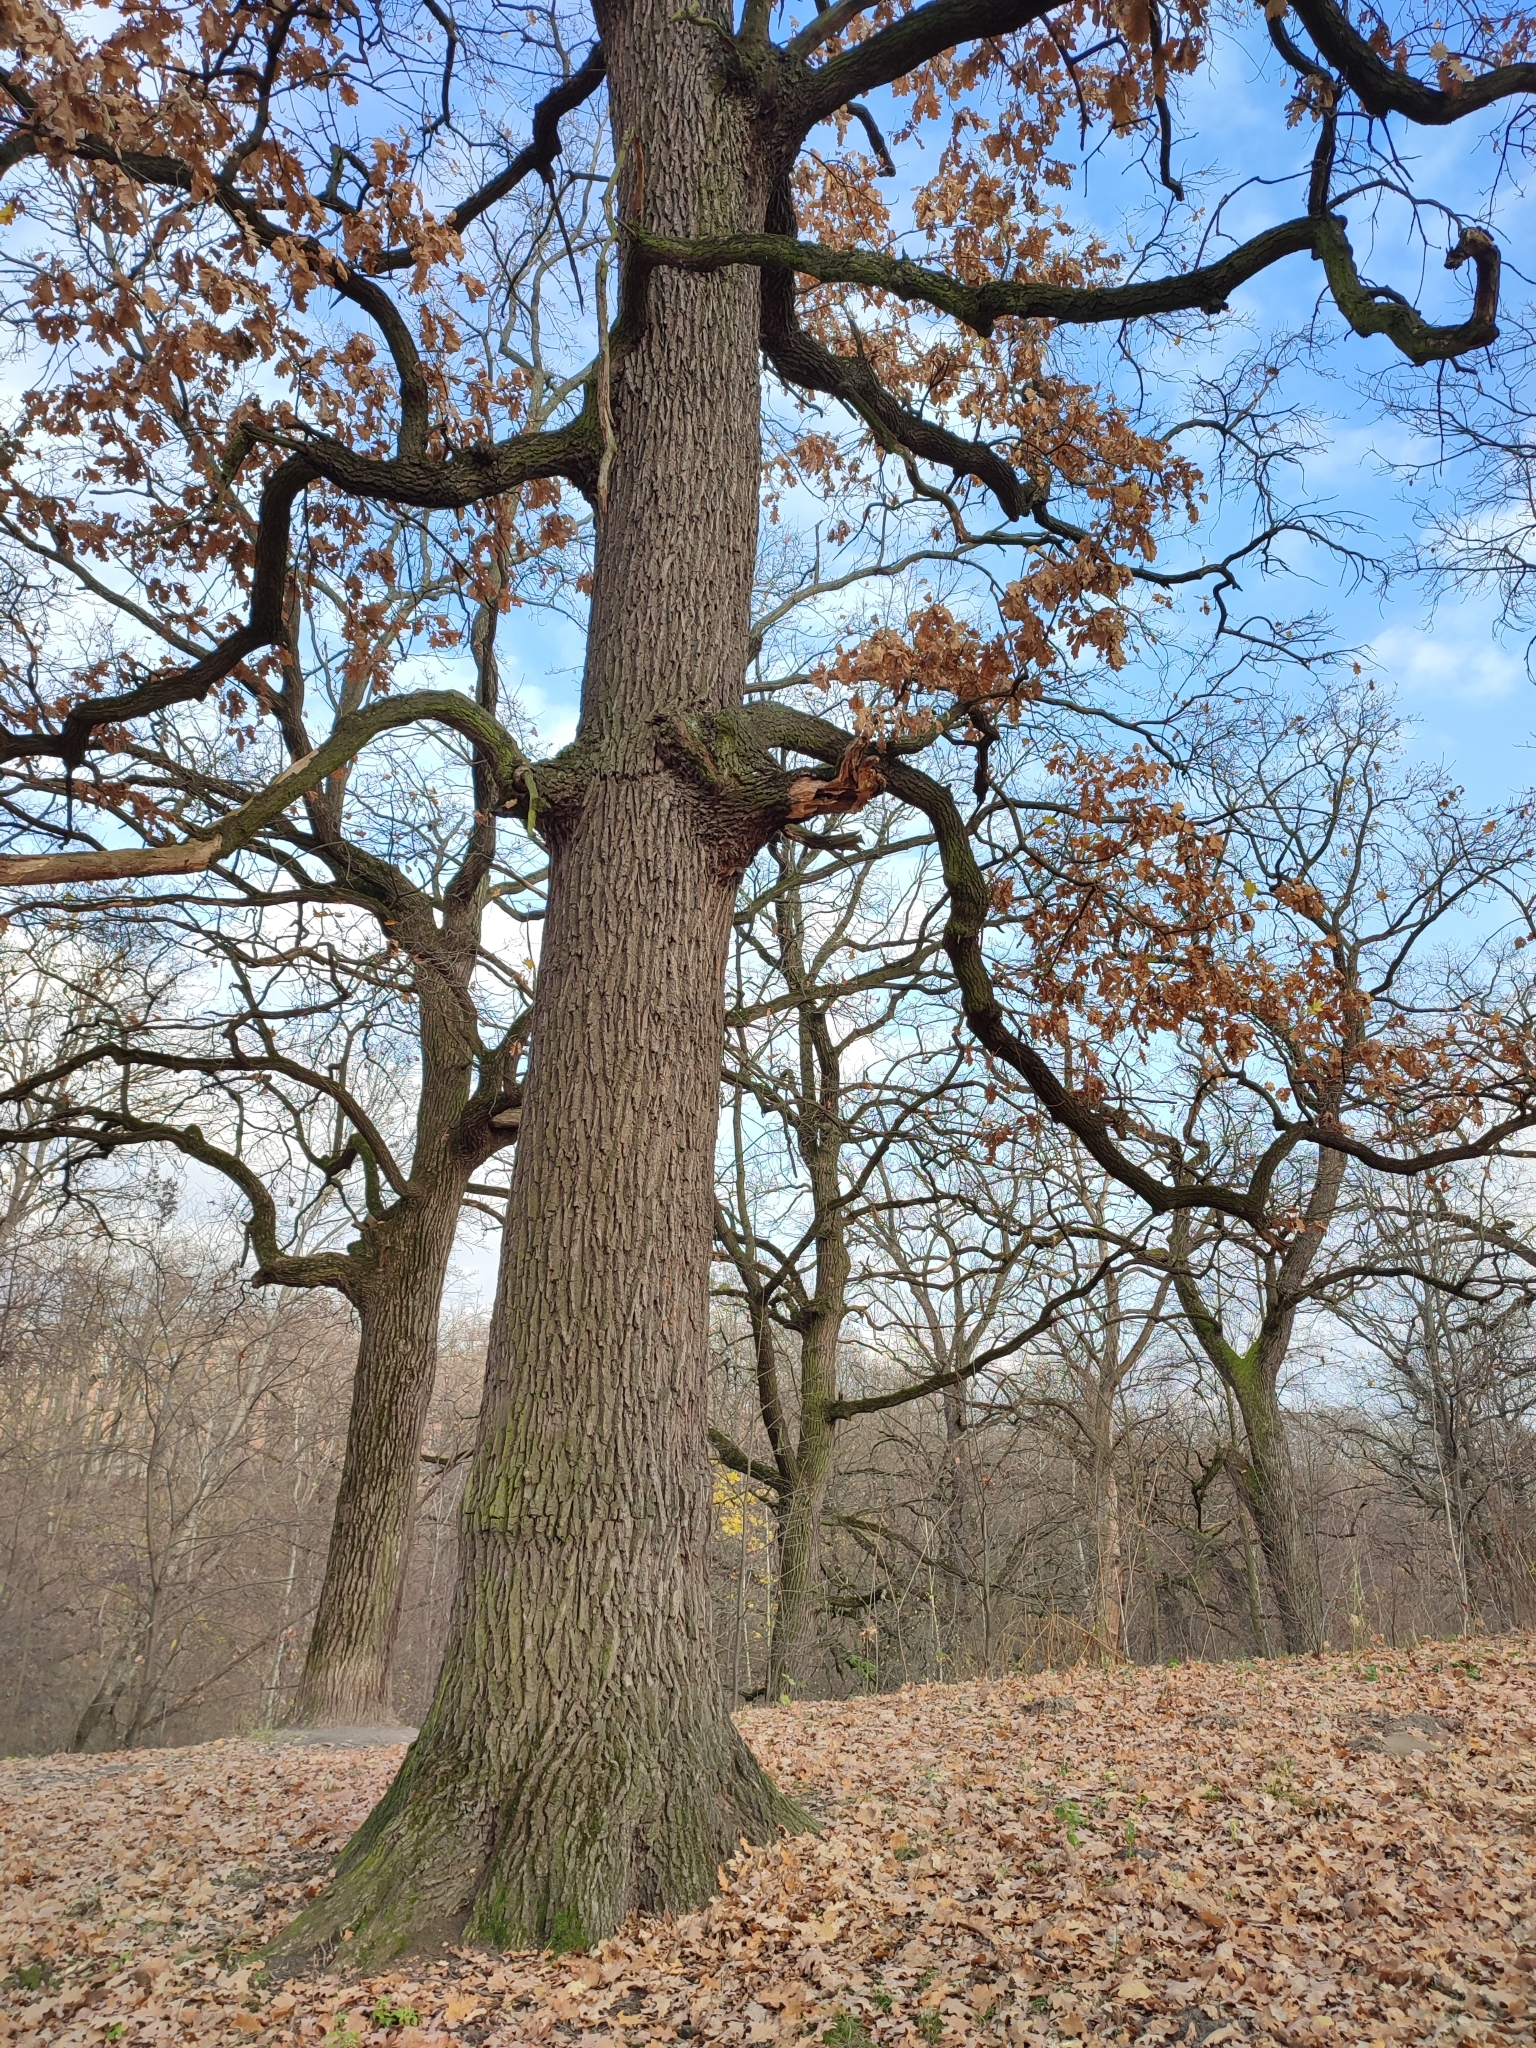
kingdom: Plantae
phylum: Tracheophyta
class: Magnoliopsida
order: Fagales
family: Fagaceae
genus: Quercus
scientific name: Quercus robur
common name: Pedunculate oak
